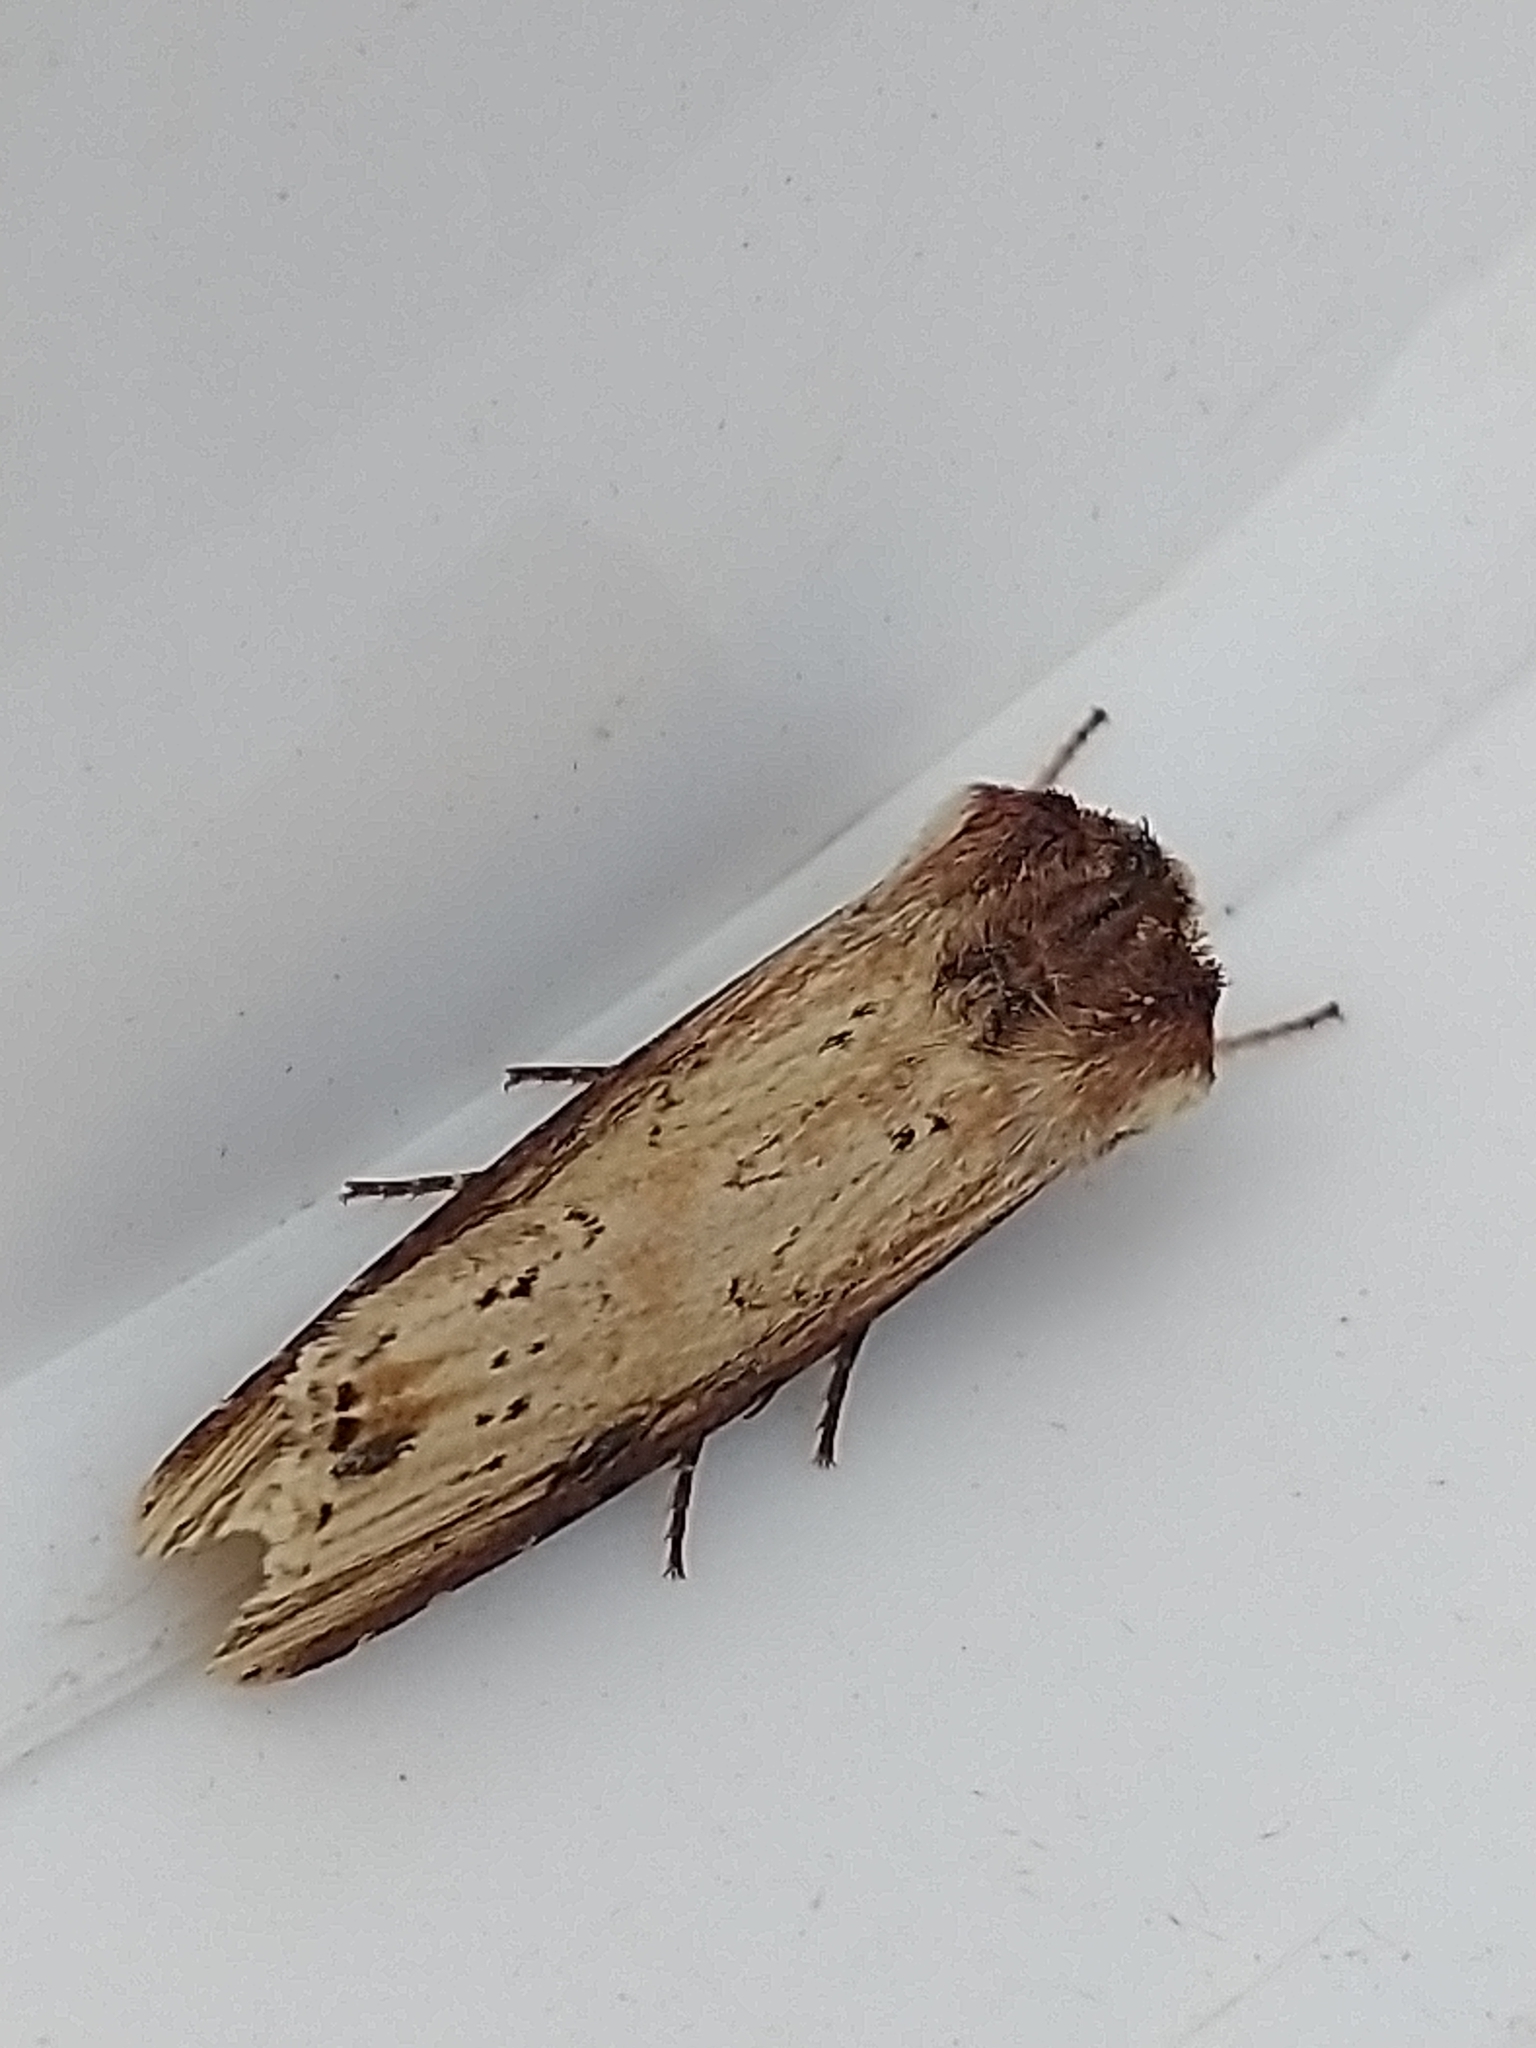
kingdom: Animalia
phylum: Arthropoda
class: Insecta
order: Lepidoptera
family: Noctuidae
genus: Axylia
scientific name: Axylia putris
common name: Flame
